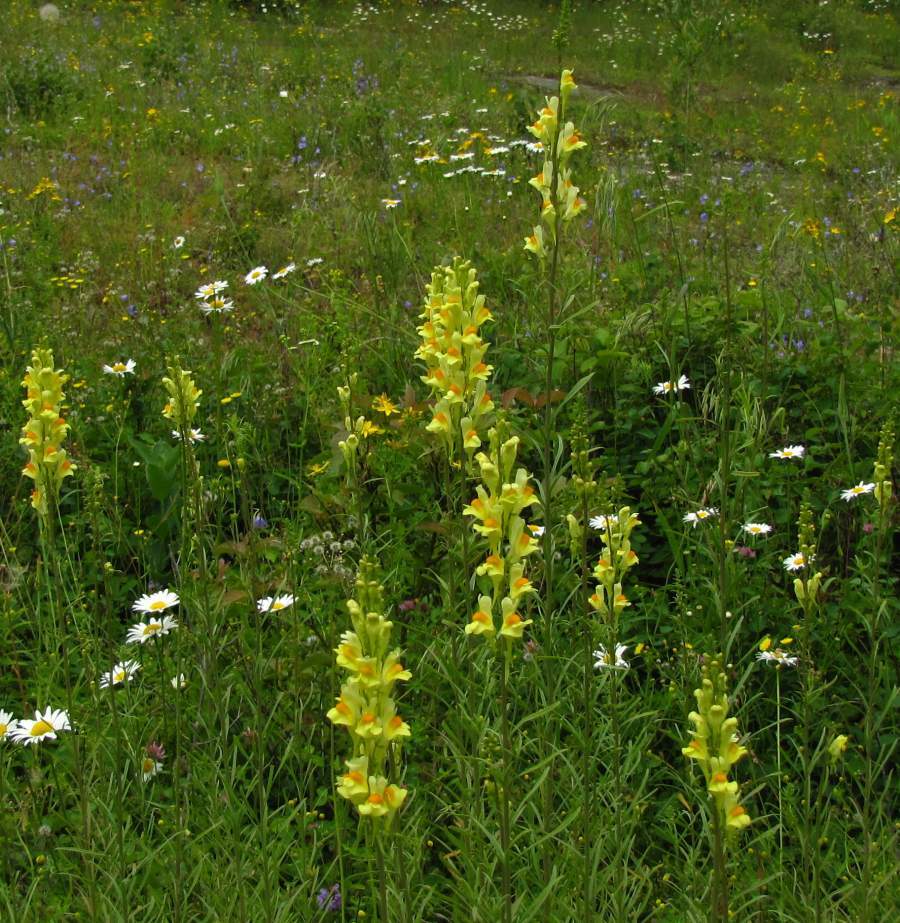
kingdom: Plantae
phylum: Tracheophyta
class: Magnoliopsida
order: Lamiales
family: Plantaginaceae
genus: Linaria
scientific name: Linaria vulgaris
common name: Butter and eggs
